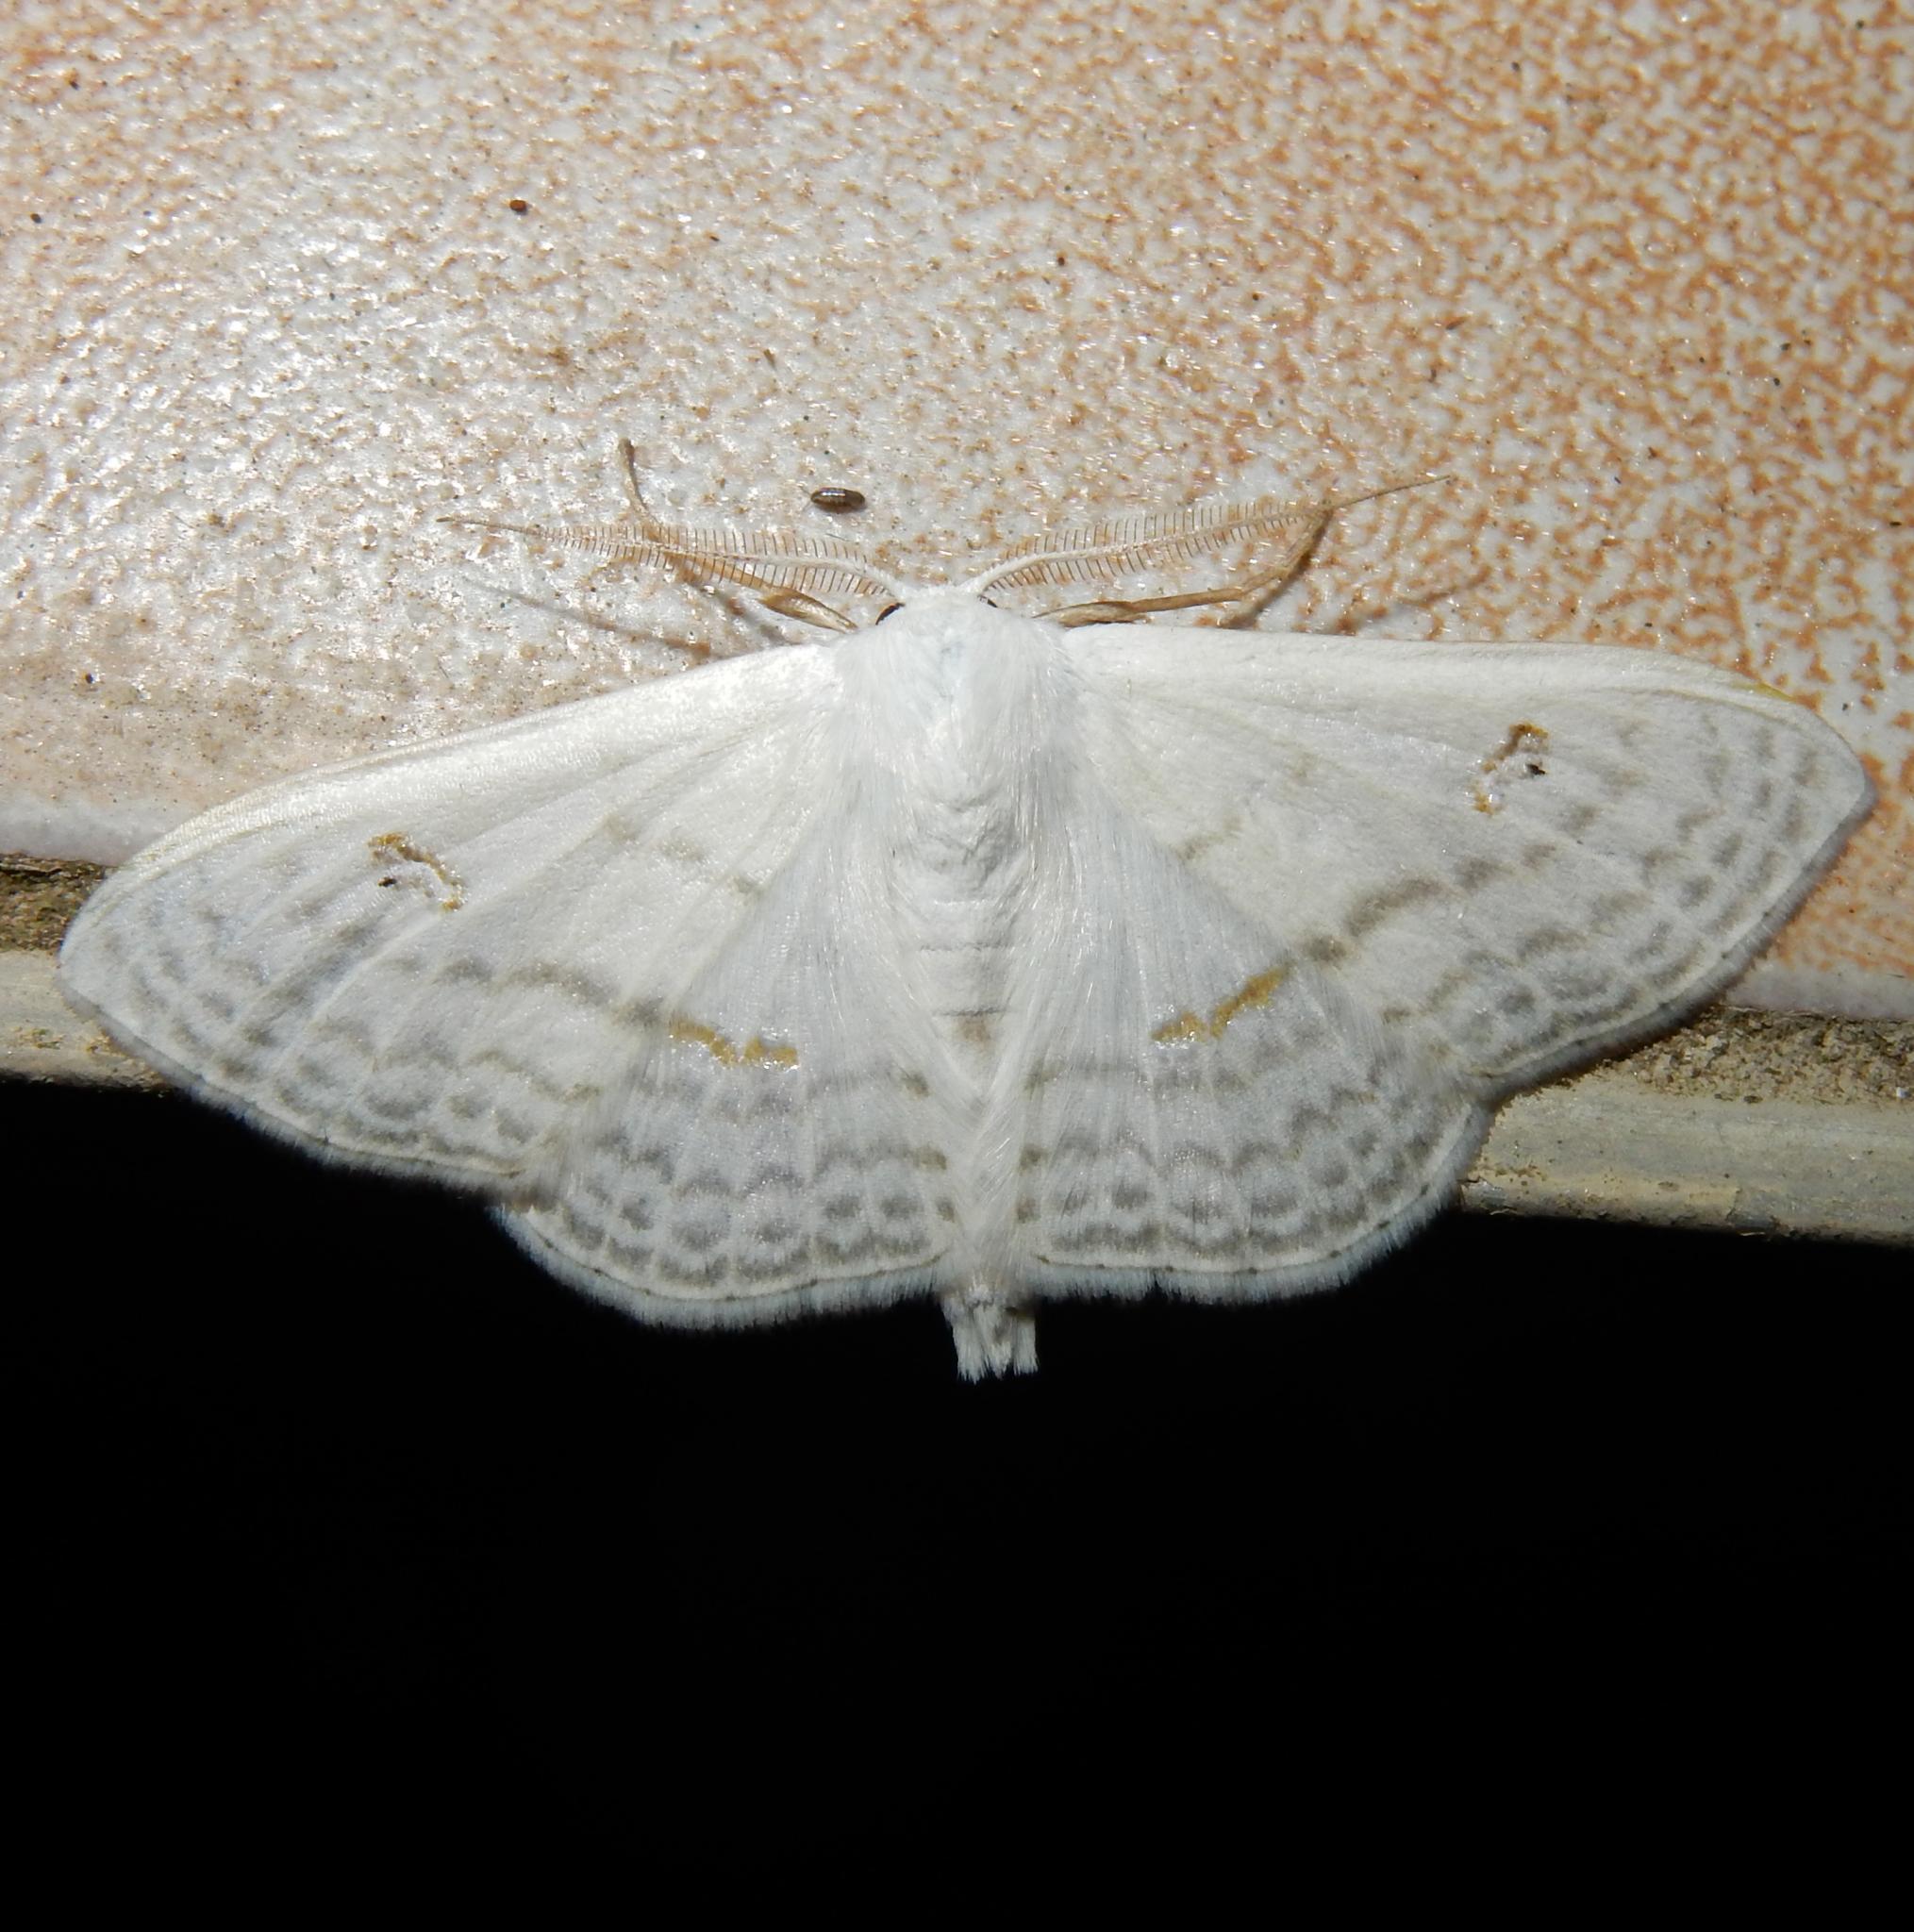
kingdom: Animalia
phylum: Arthropoda
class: Insecta
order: Lepidoptera
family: Geometridae
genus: Problepsis
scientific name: Problepsis aegretta
